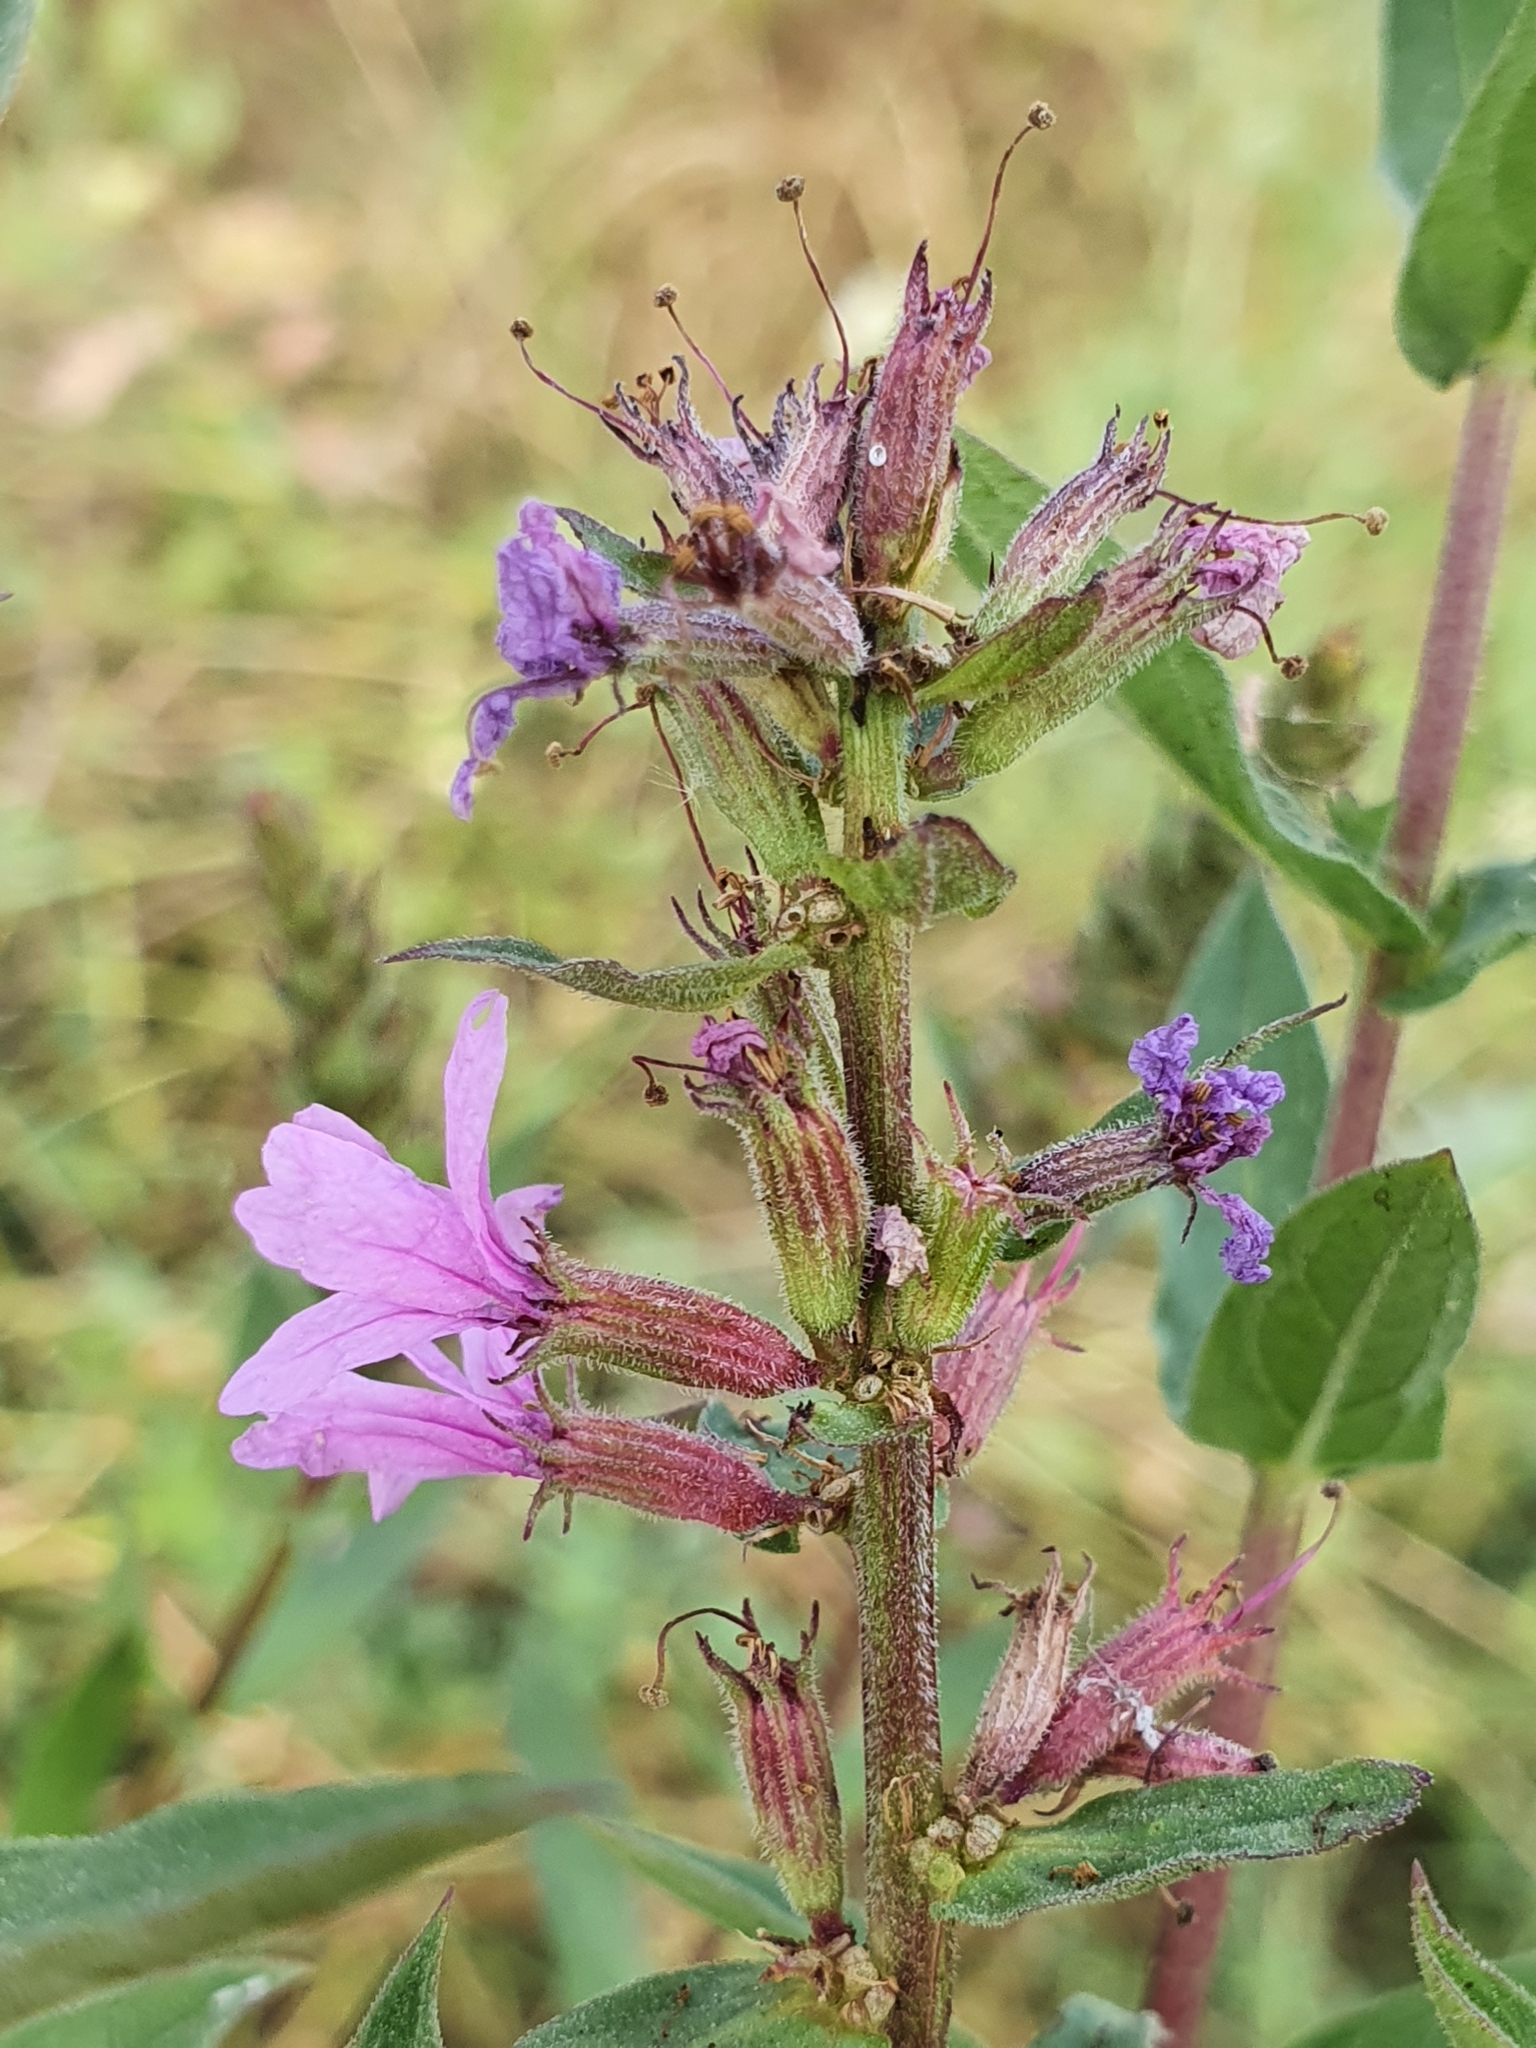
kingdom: Plantae
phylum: Tracheophyta
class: Magnoliopsida
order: Myrtales
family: Lythraceae
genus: Lythrum
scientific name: Lythrum salicaria
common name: Purple loosestrife
